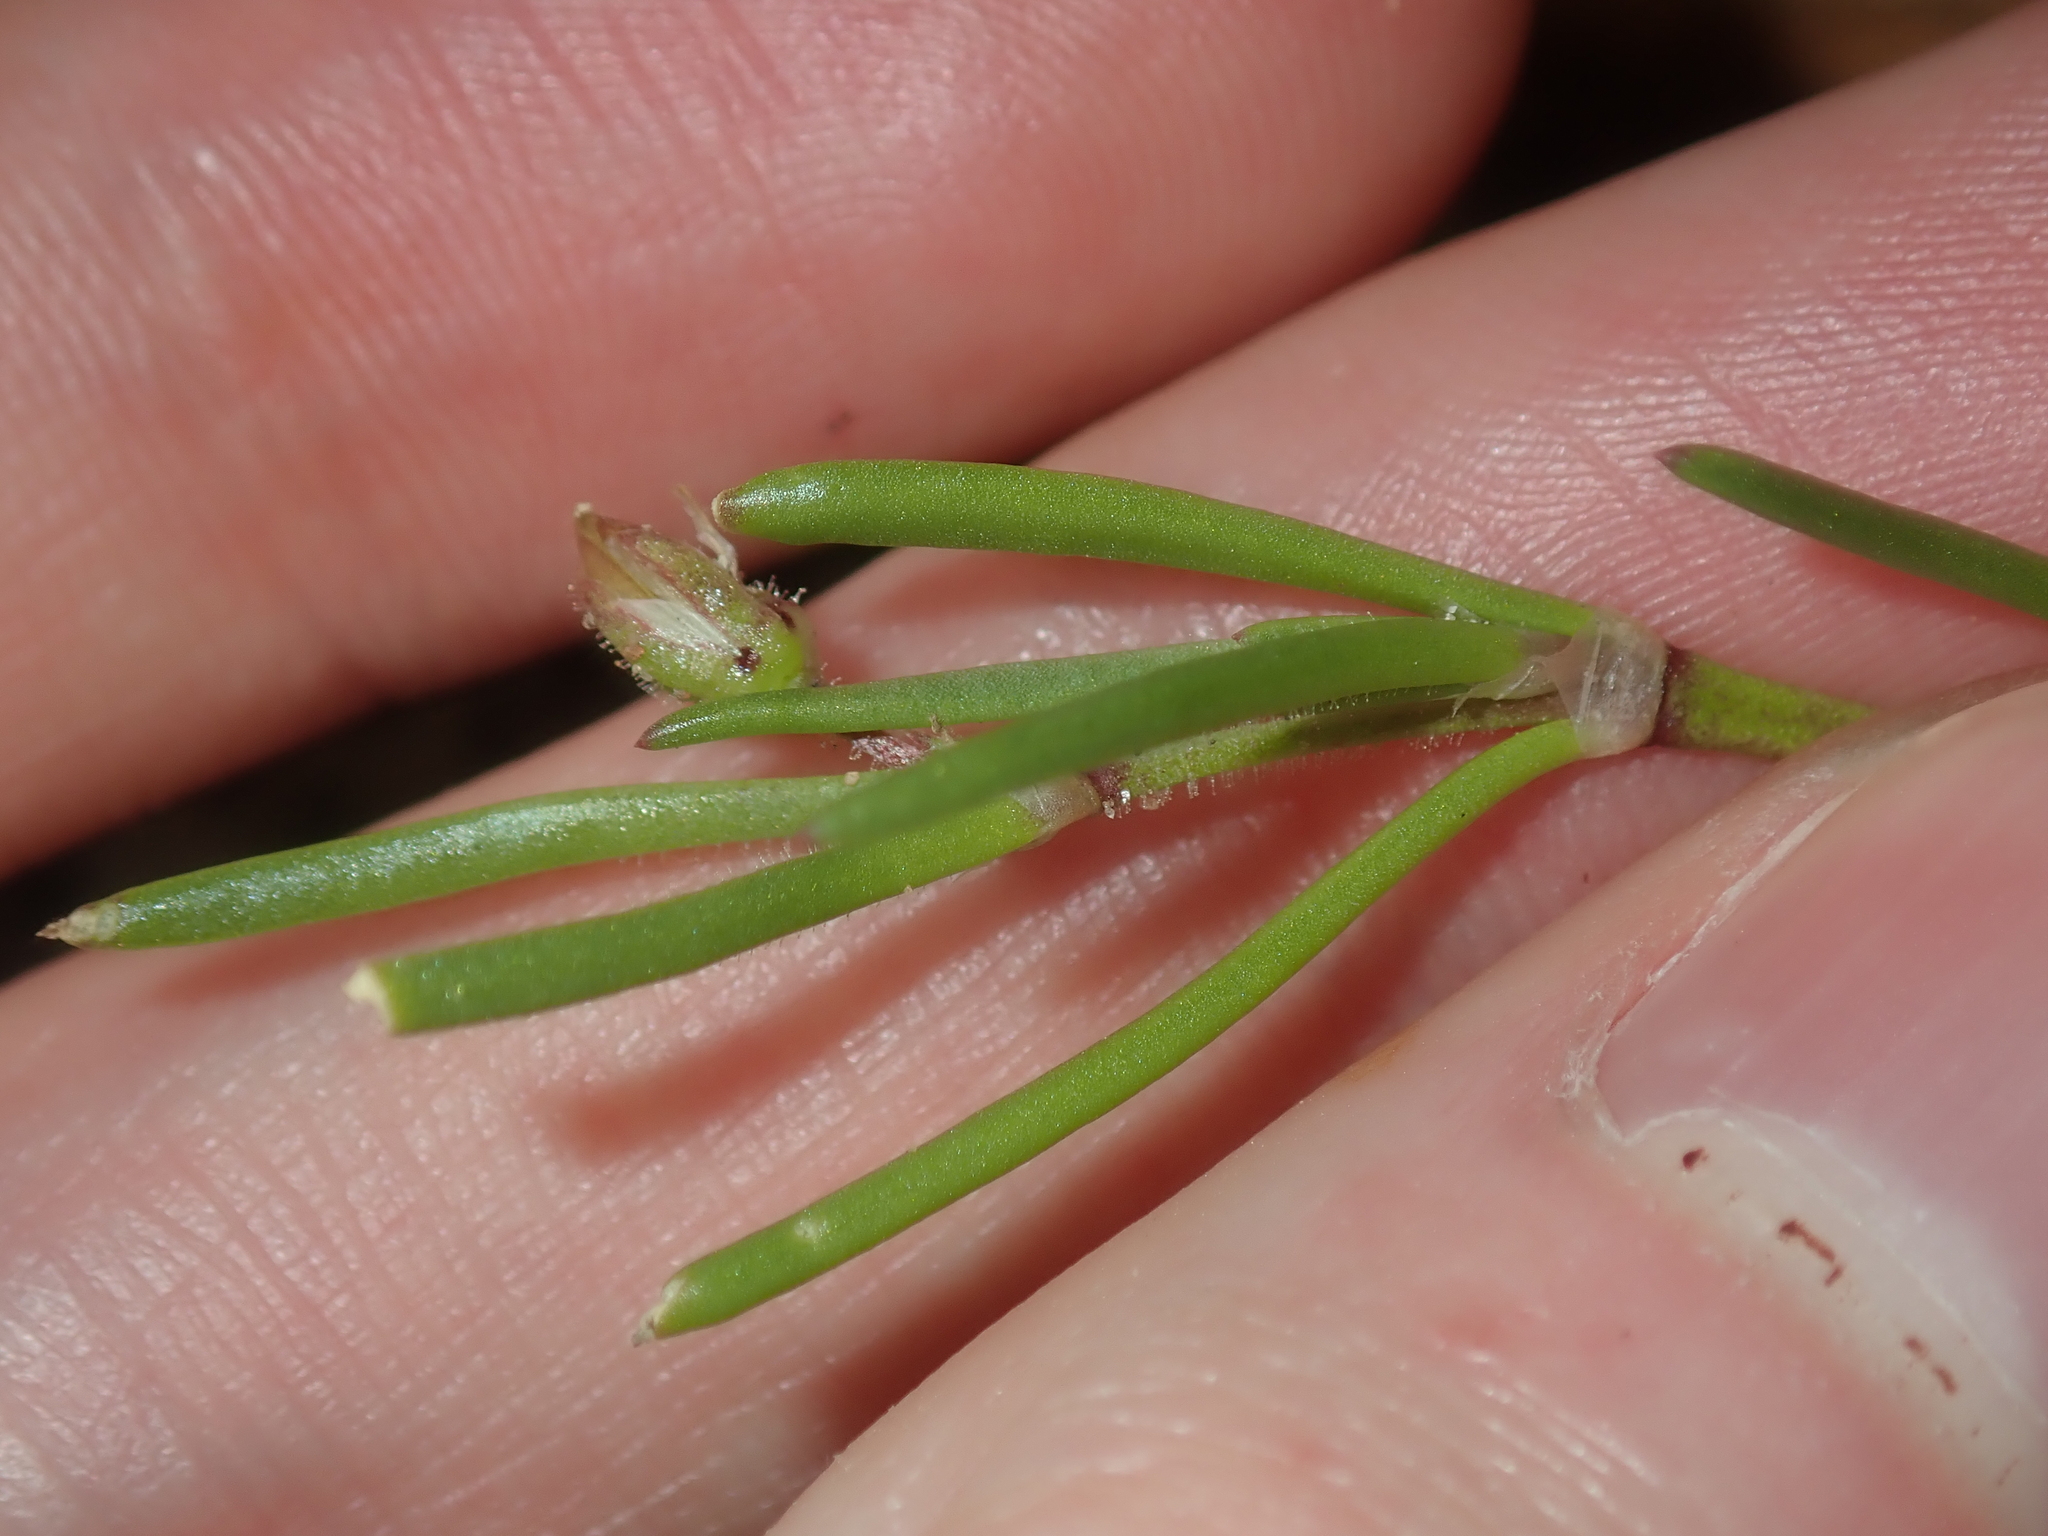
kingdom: Plantae
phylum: Tracheophyta
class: Magnoliopsida
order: Caryophyllales
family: Caryophyllaceae
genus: Spergularia
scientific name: Spergularia marina
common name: Lesser sea-spurrey
